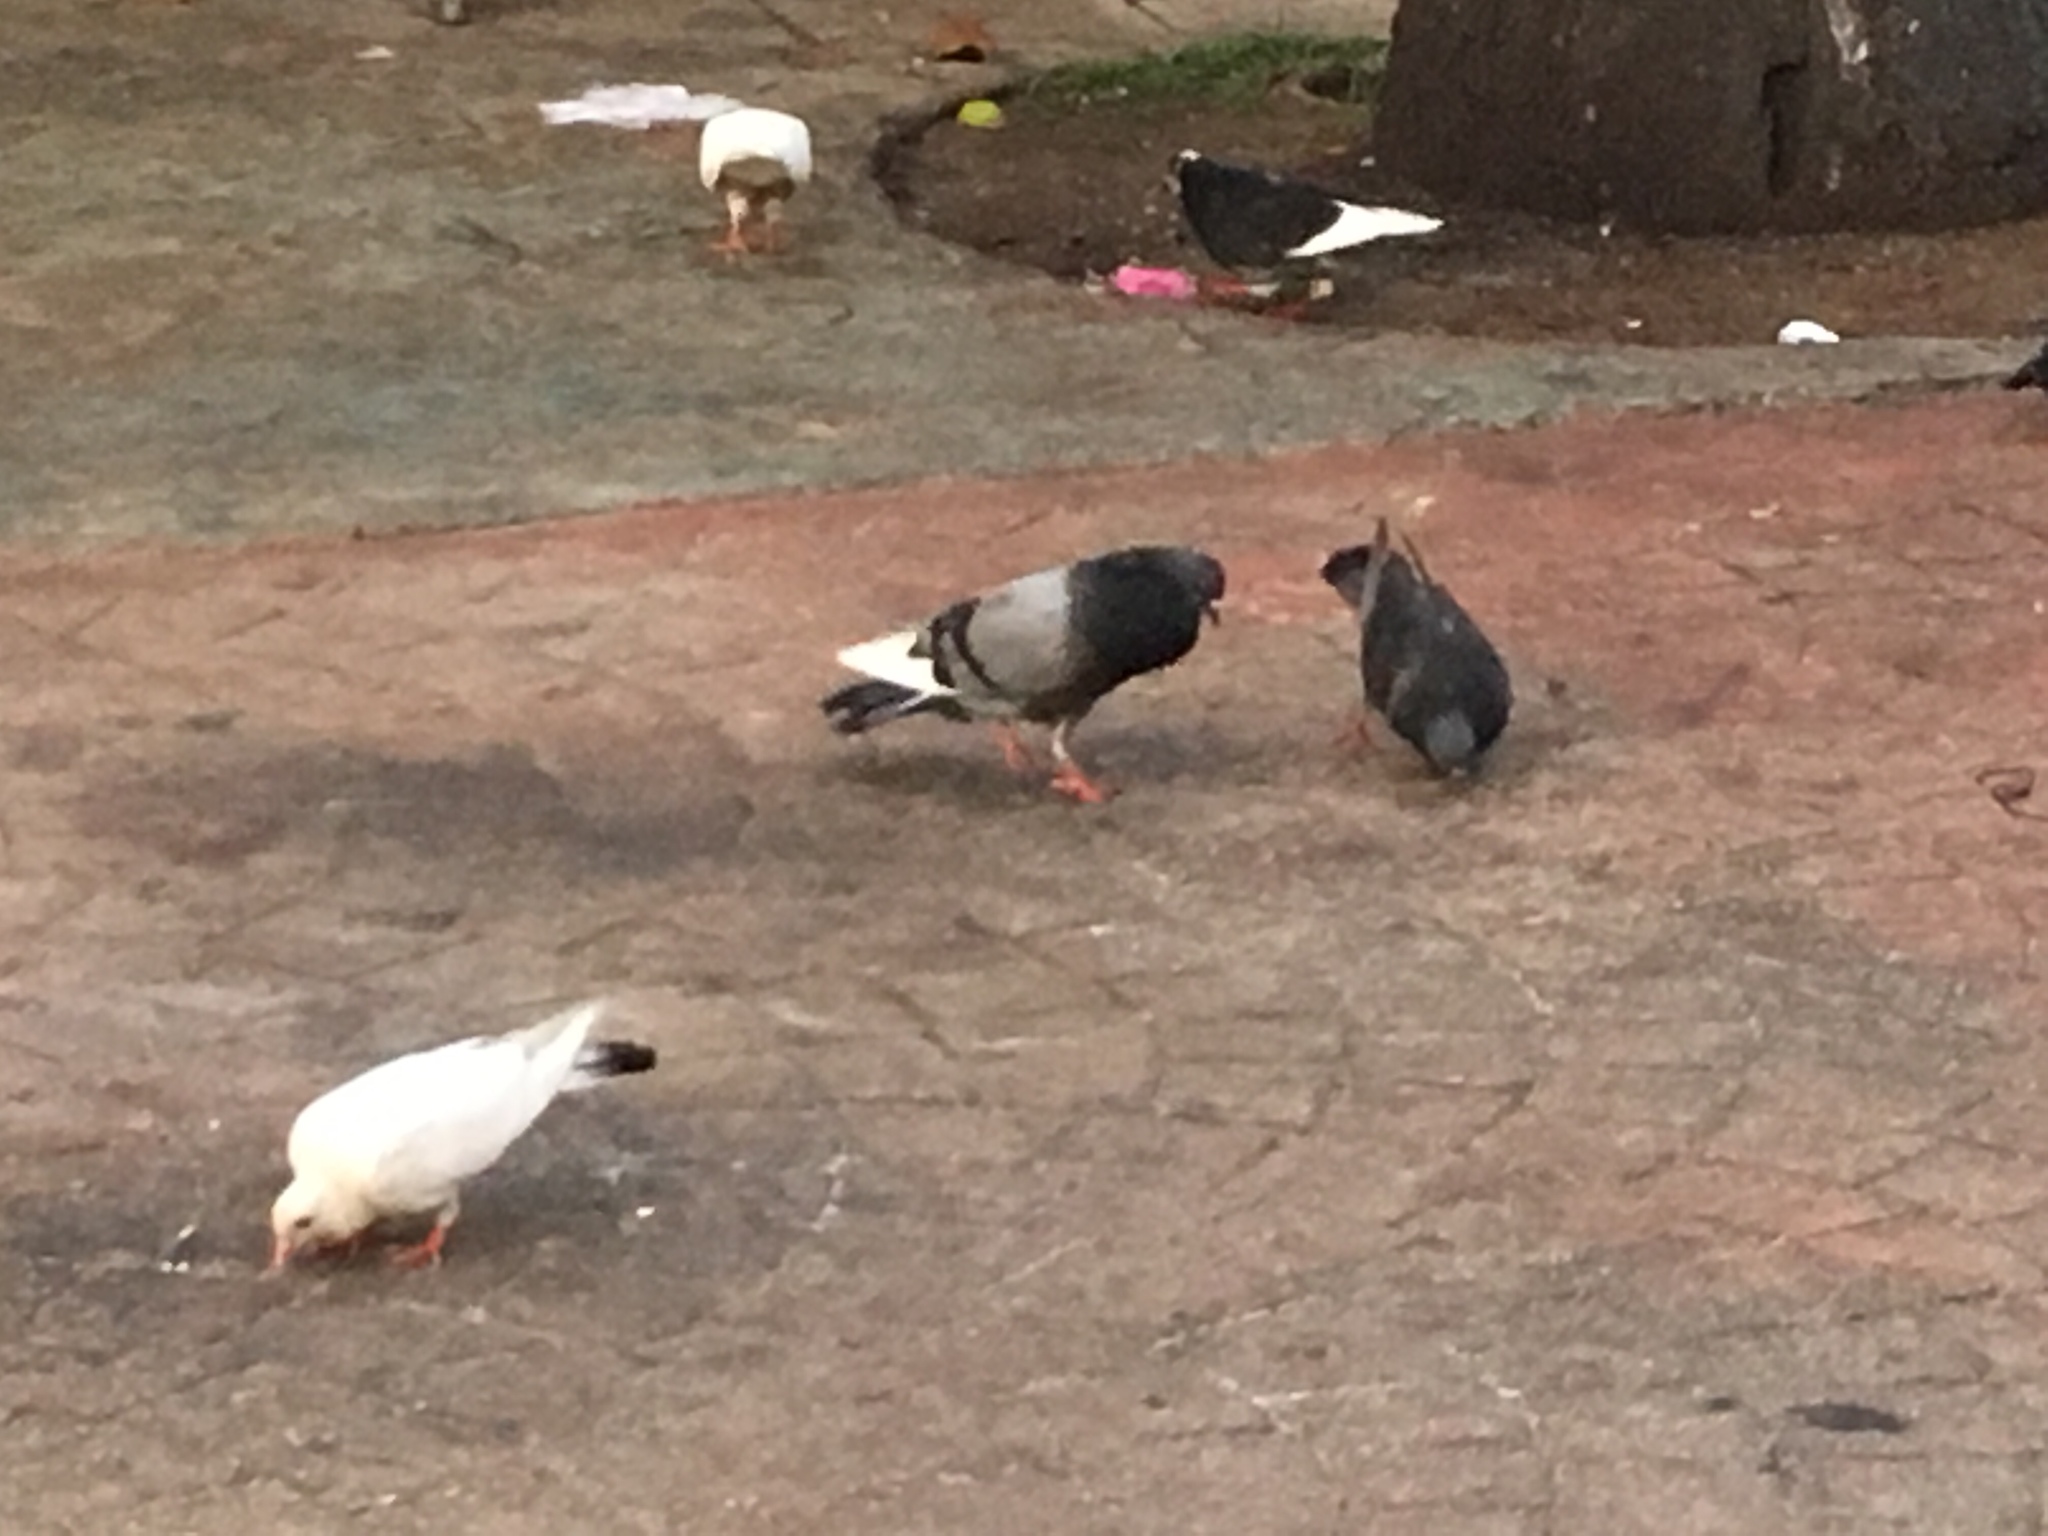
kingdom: Animalia
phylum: Chordata
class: Aves
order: Columbiformes
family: Columbidae
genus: Columba
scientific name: Columba livia
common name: Rock pigeon
